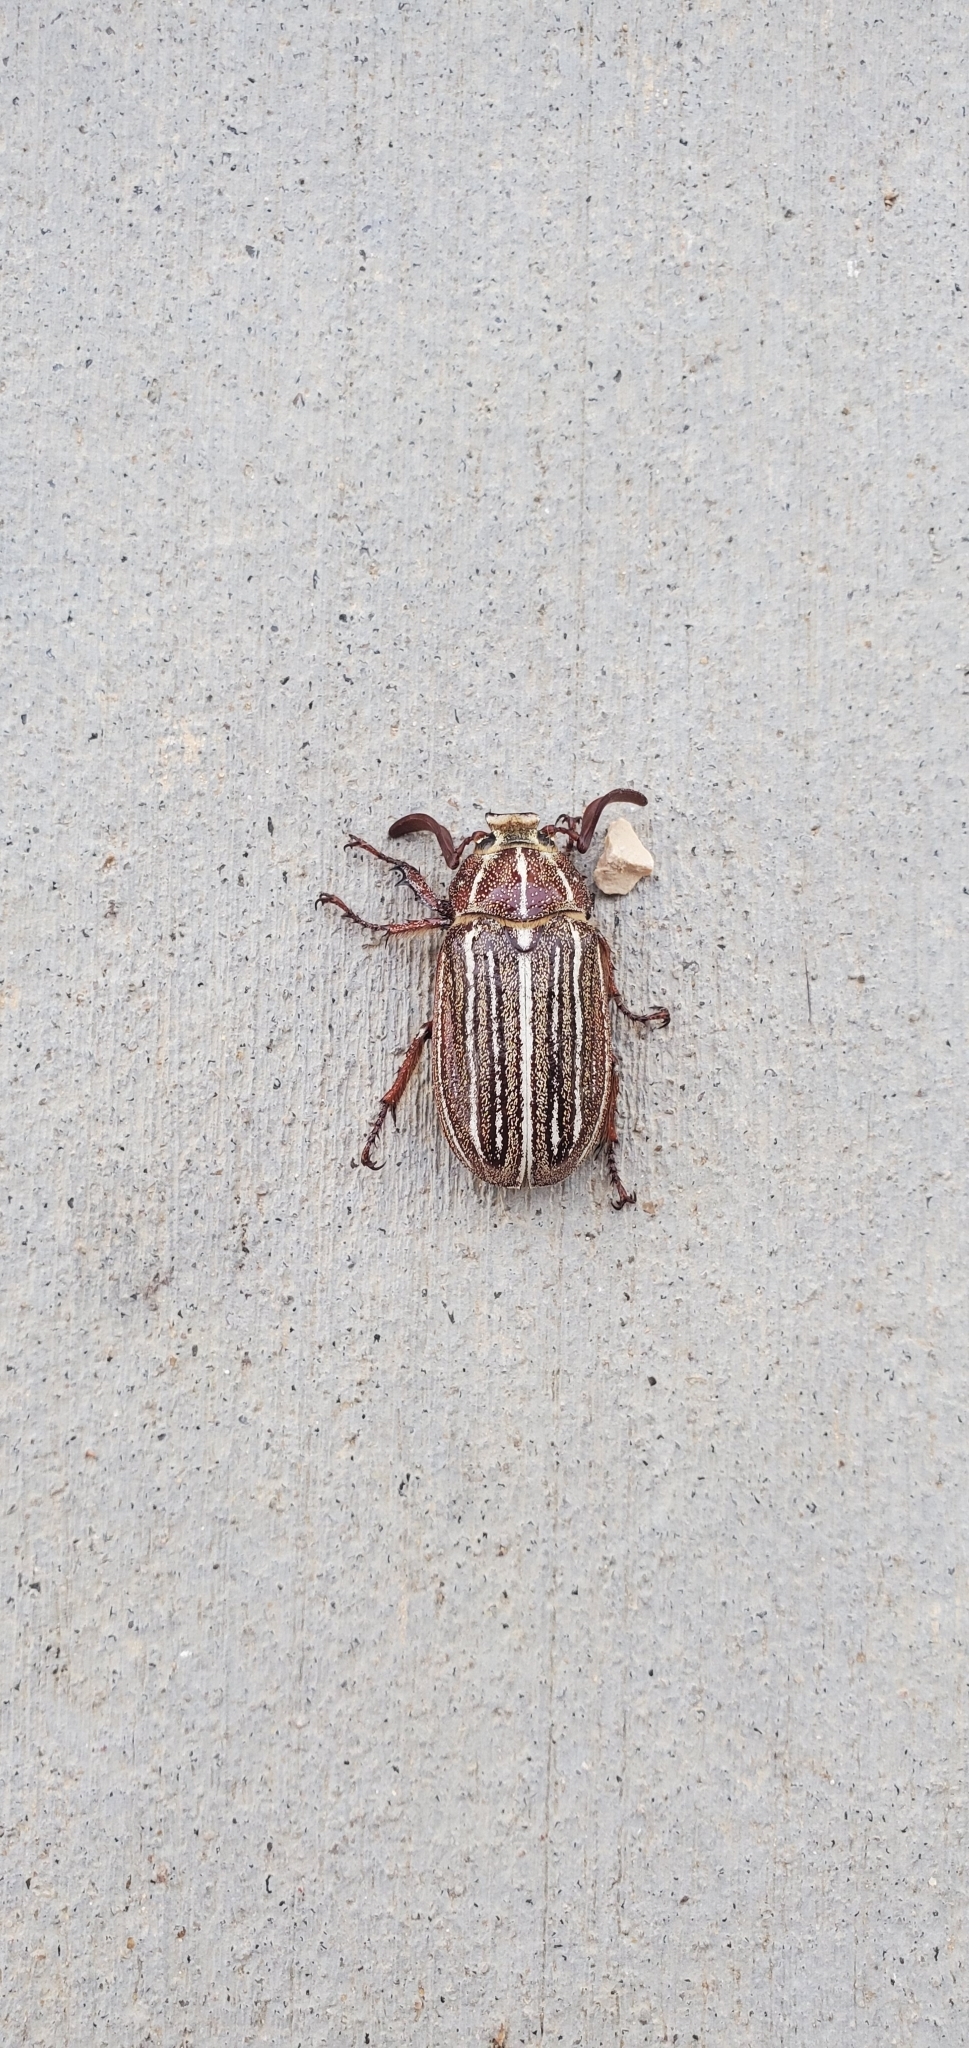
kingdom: Animalia
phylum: Arthropoda
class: Insecta
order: Coleoptera
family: Scarabaeidae
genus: Polyphylla
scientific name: Polyphylla decemlineata
